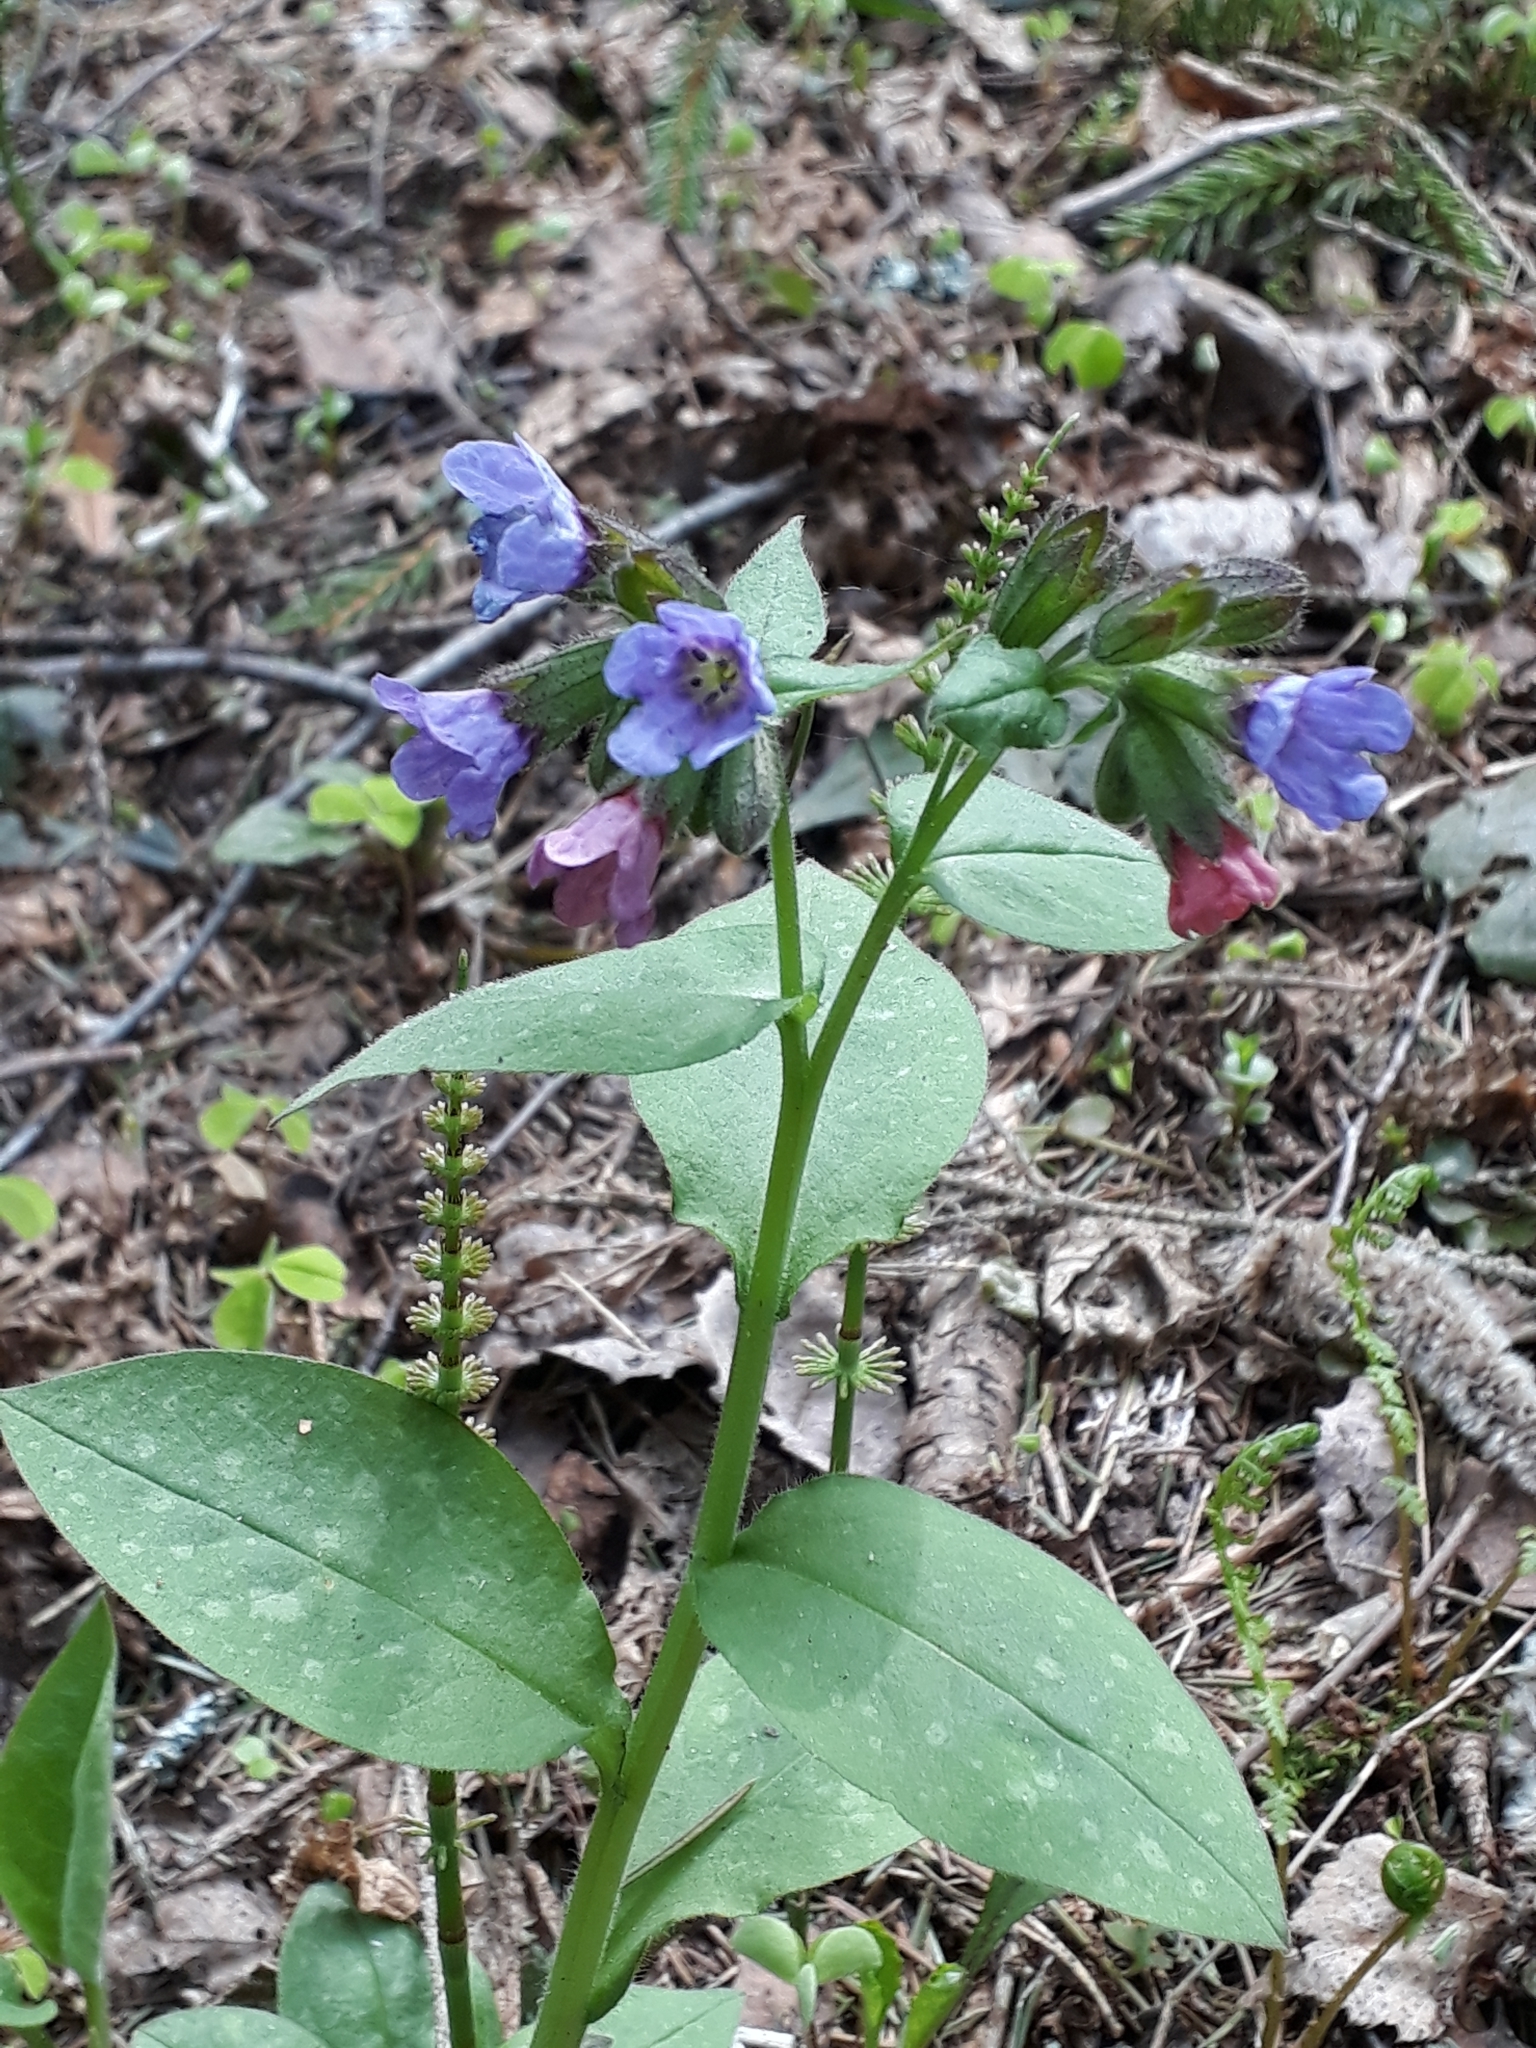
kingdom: Plantae
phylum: Tracheophyta
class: Magnoliopsida
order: Boraginales
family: Boraginaceae
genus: Pulmonaria
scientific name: Pulmonaria obscura
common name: Suffolk lungwort
